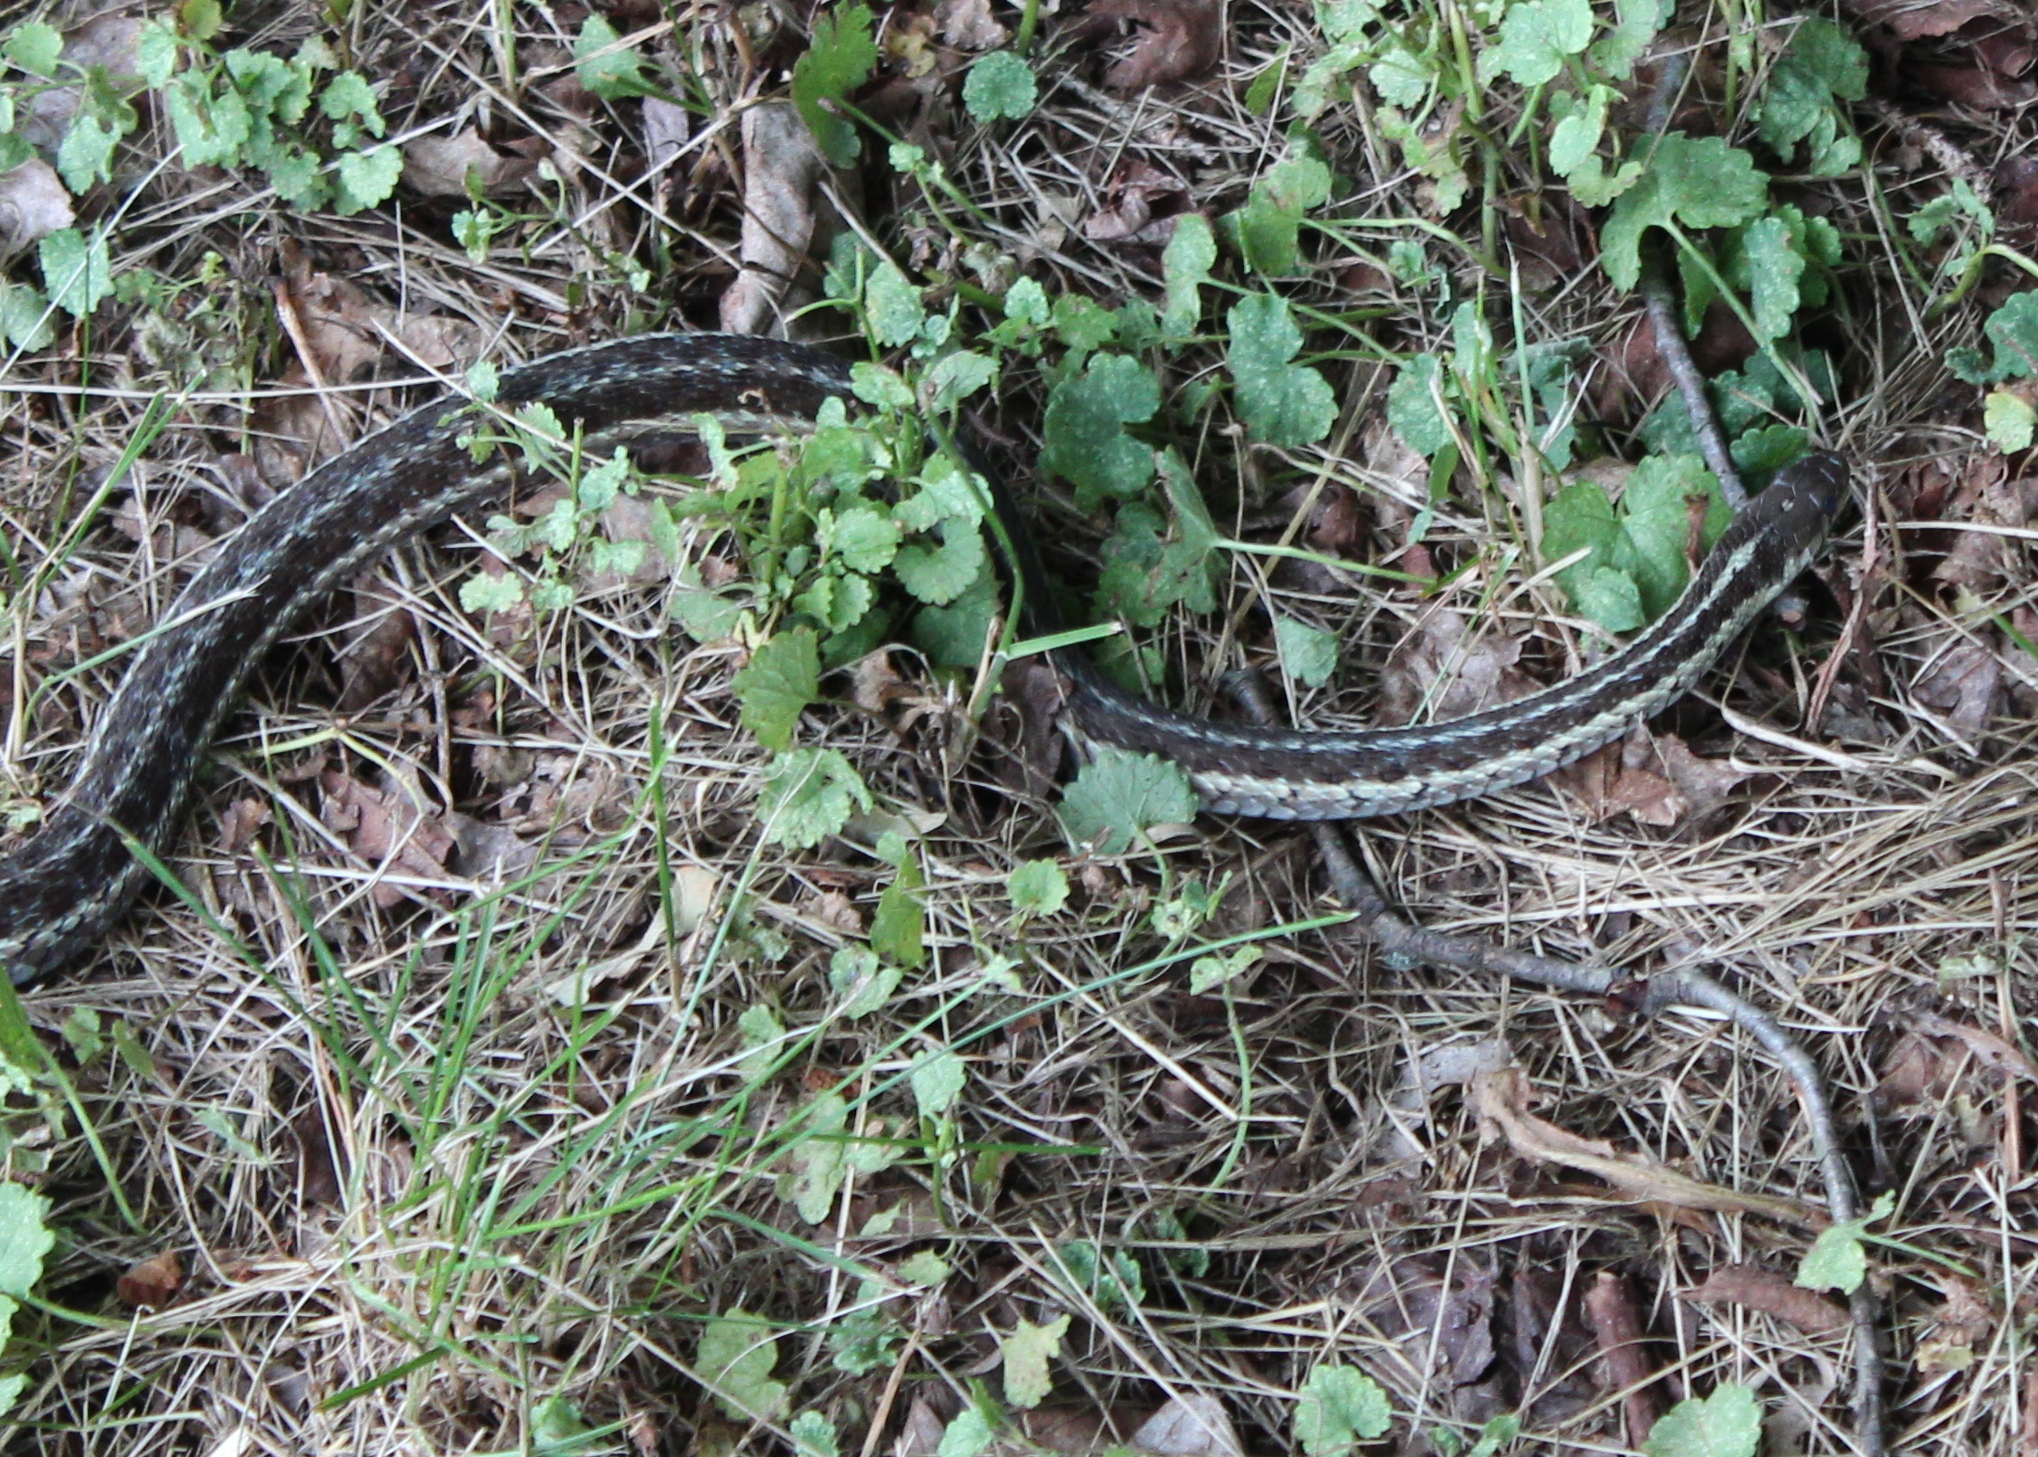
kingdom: Animalia
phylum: Chordata
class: Squamata
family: Colubridae
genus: Thamnophis
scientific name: Thamnophis sirtalis
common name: Common garter snake
